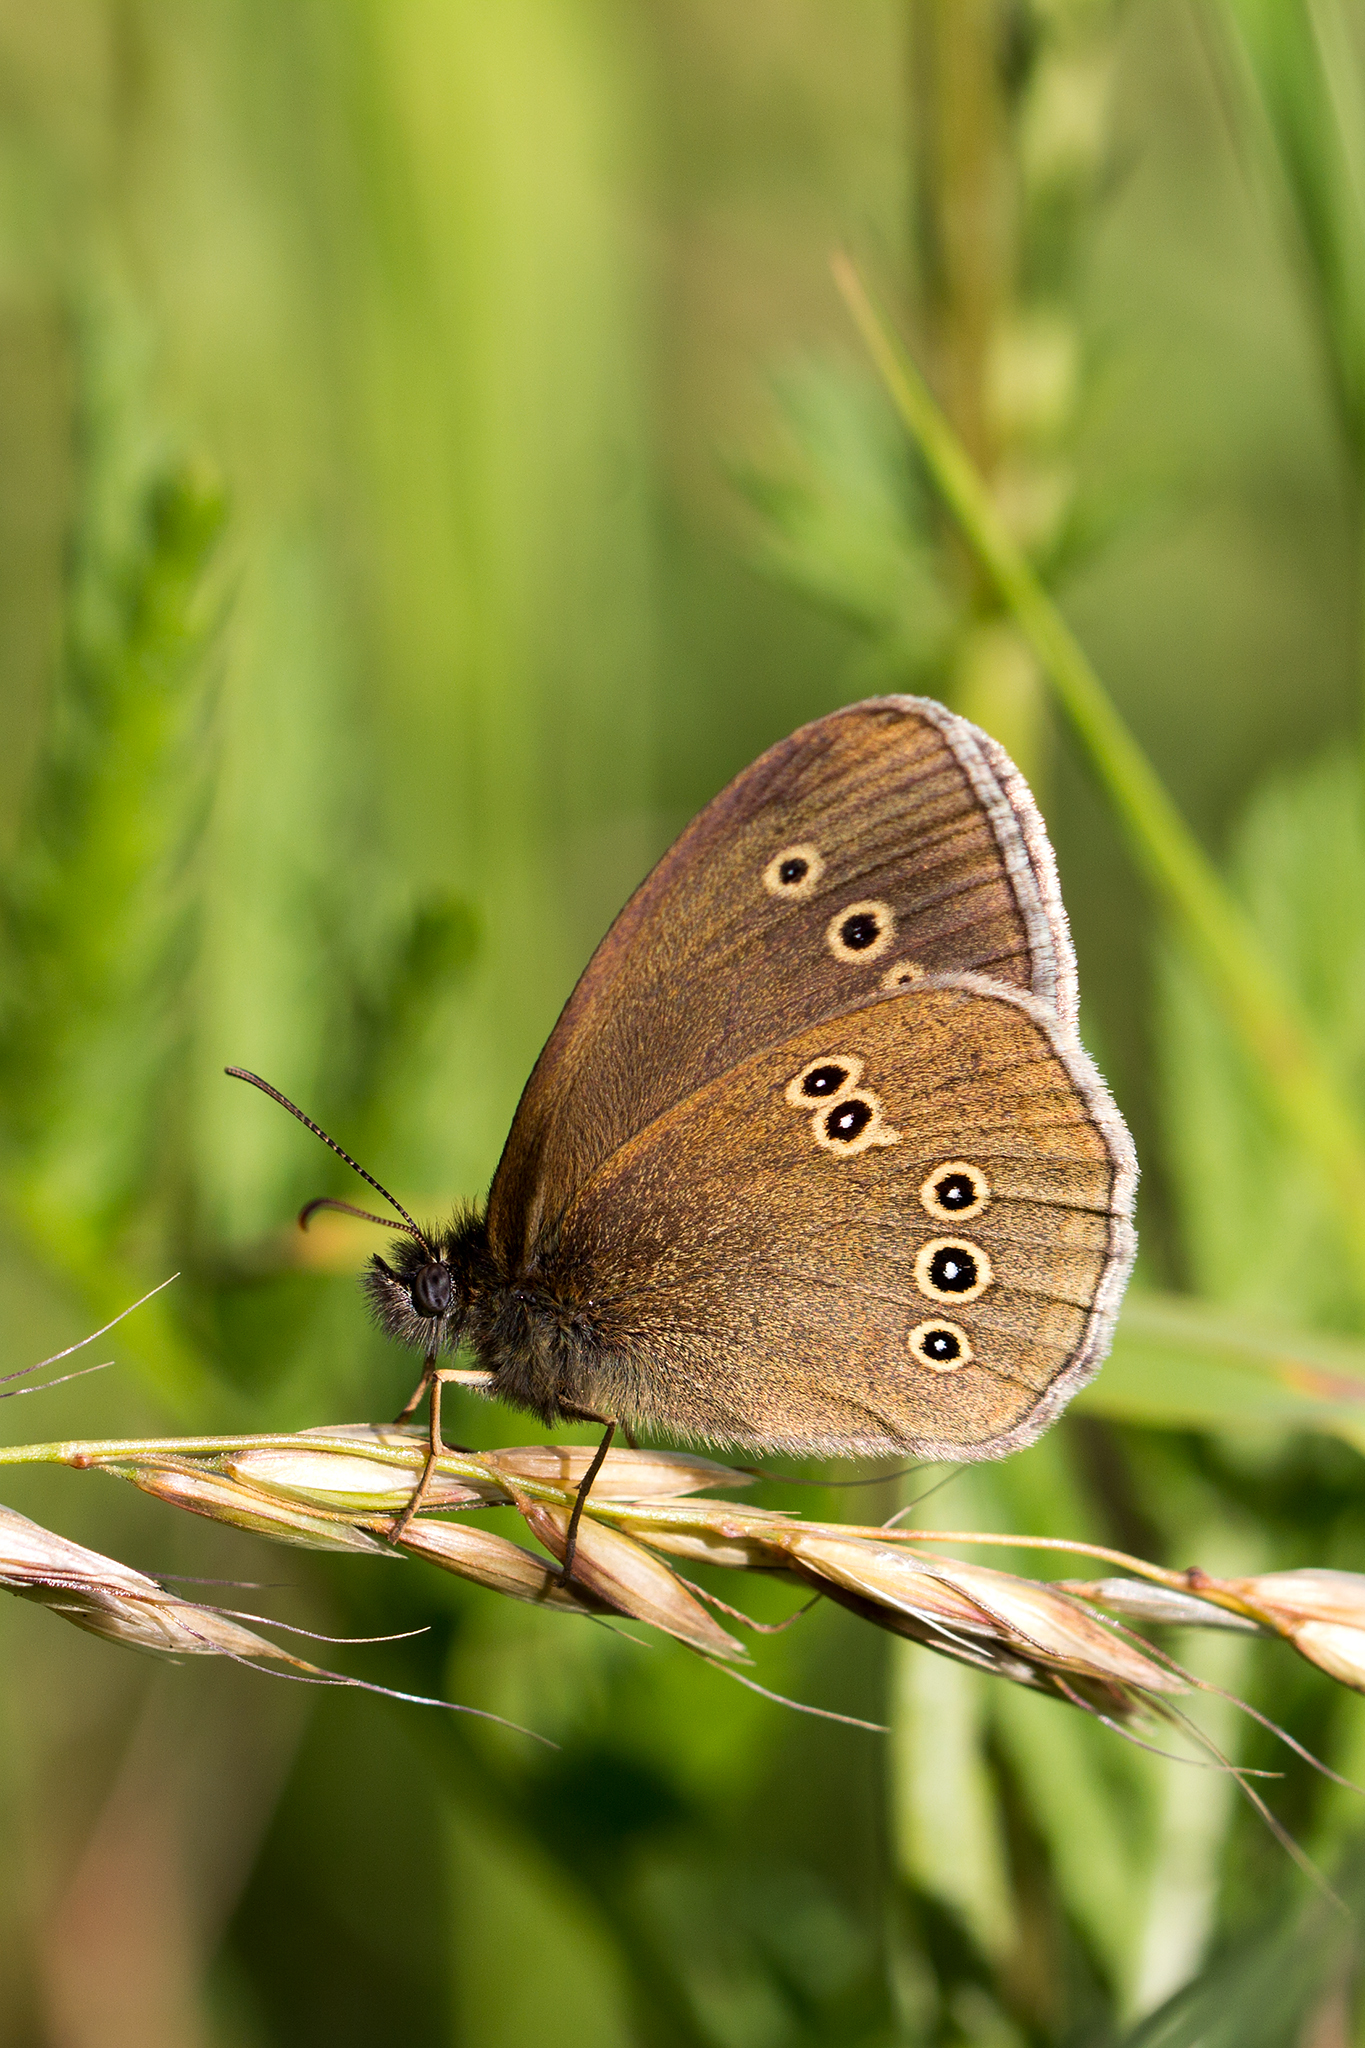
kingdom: Animalia
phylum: Arthropoda
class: Insecta
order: Lepidoptera
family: Nymphalidae
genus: Aphantopus
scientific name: Aphantopus hyperantus
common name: Ringlet
